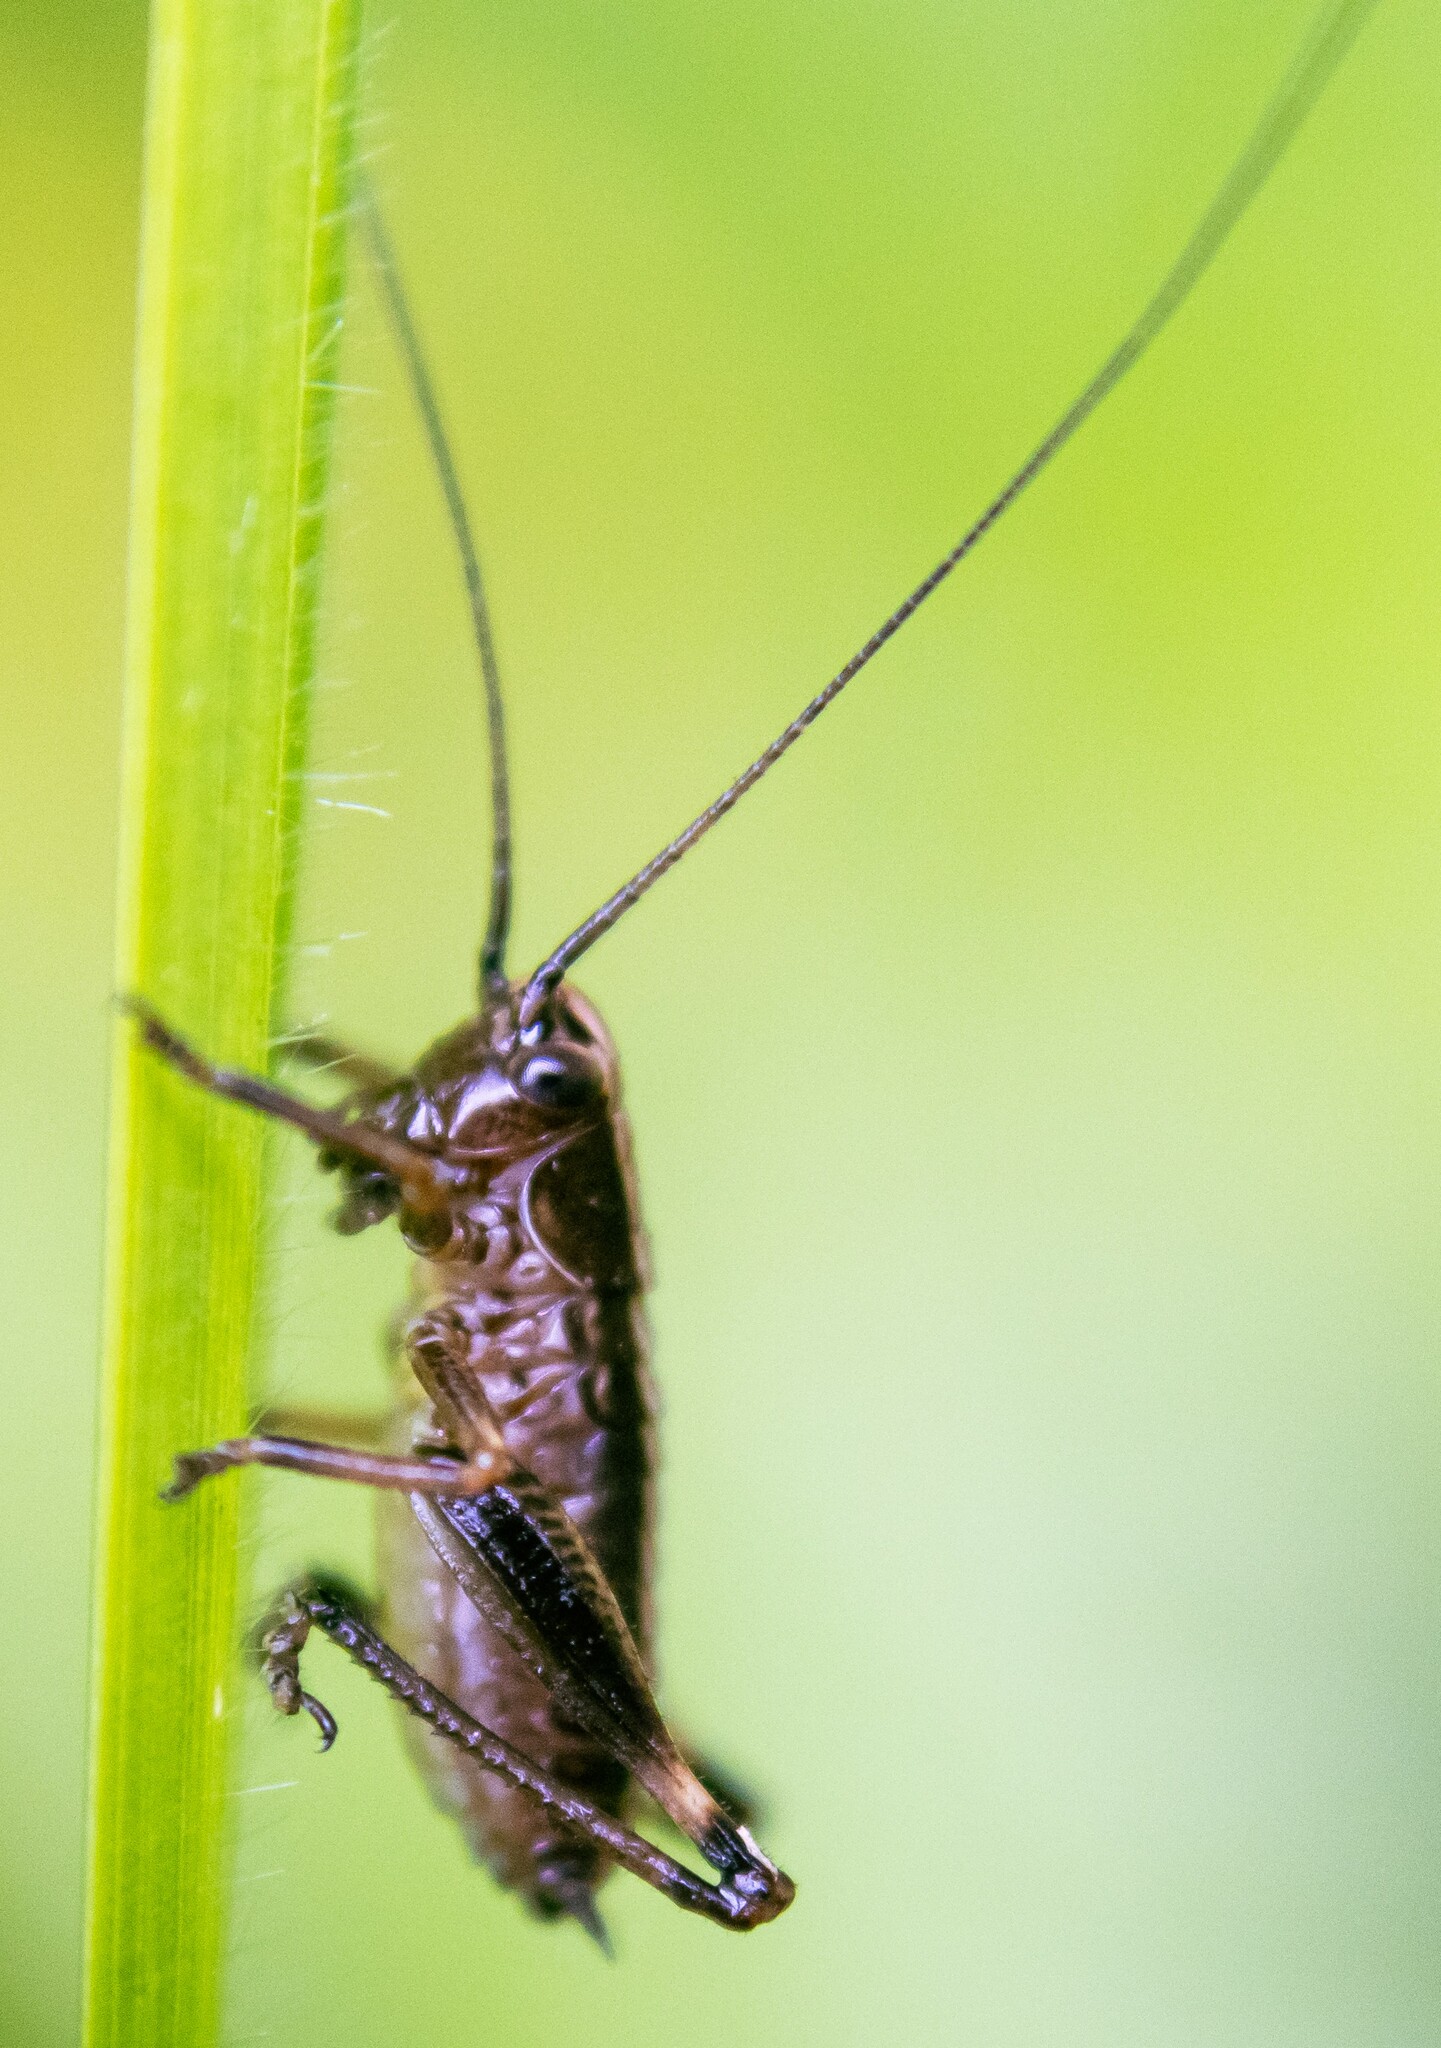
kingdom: Animalia
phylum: Arthropoda
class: Insecta
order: Orthoptera
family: Tettigoniidae
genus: Pholidoptera
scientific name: Pholidoptera griseoaptera
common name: Dark bush-cricket
